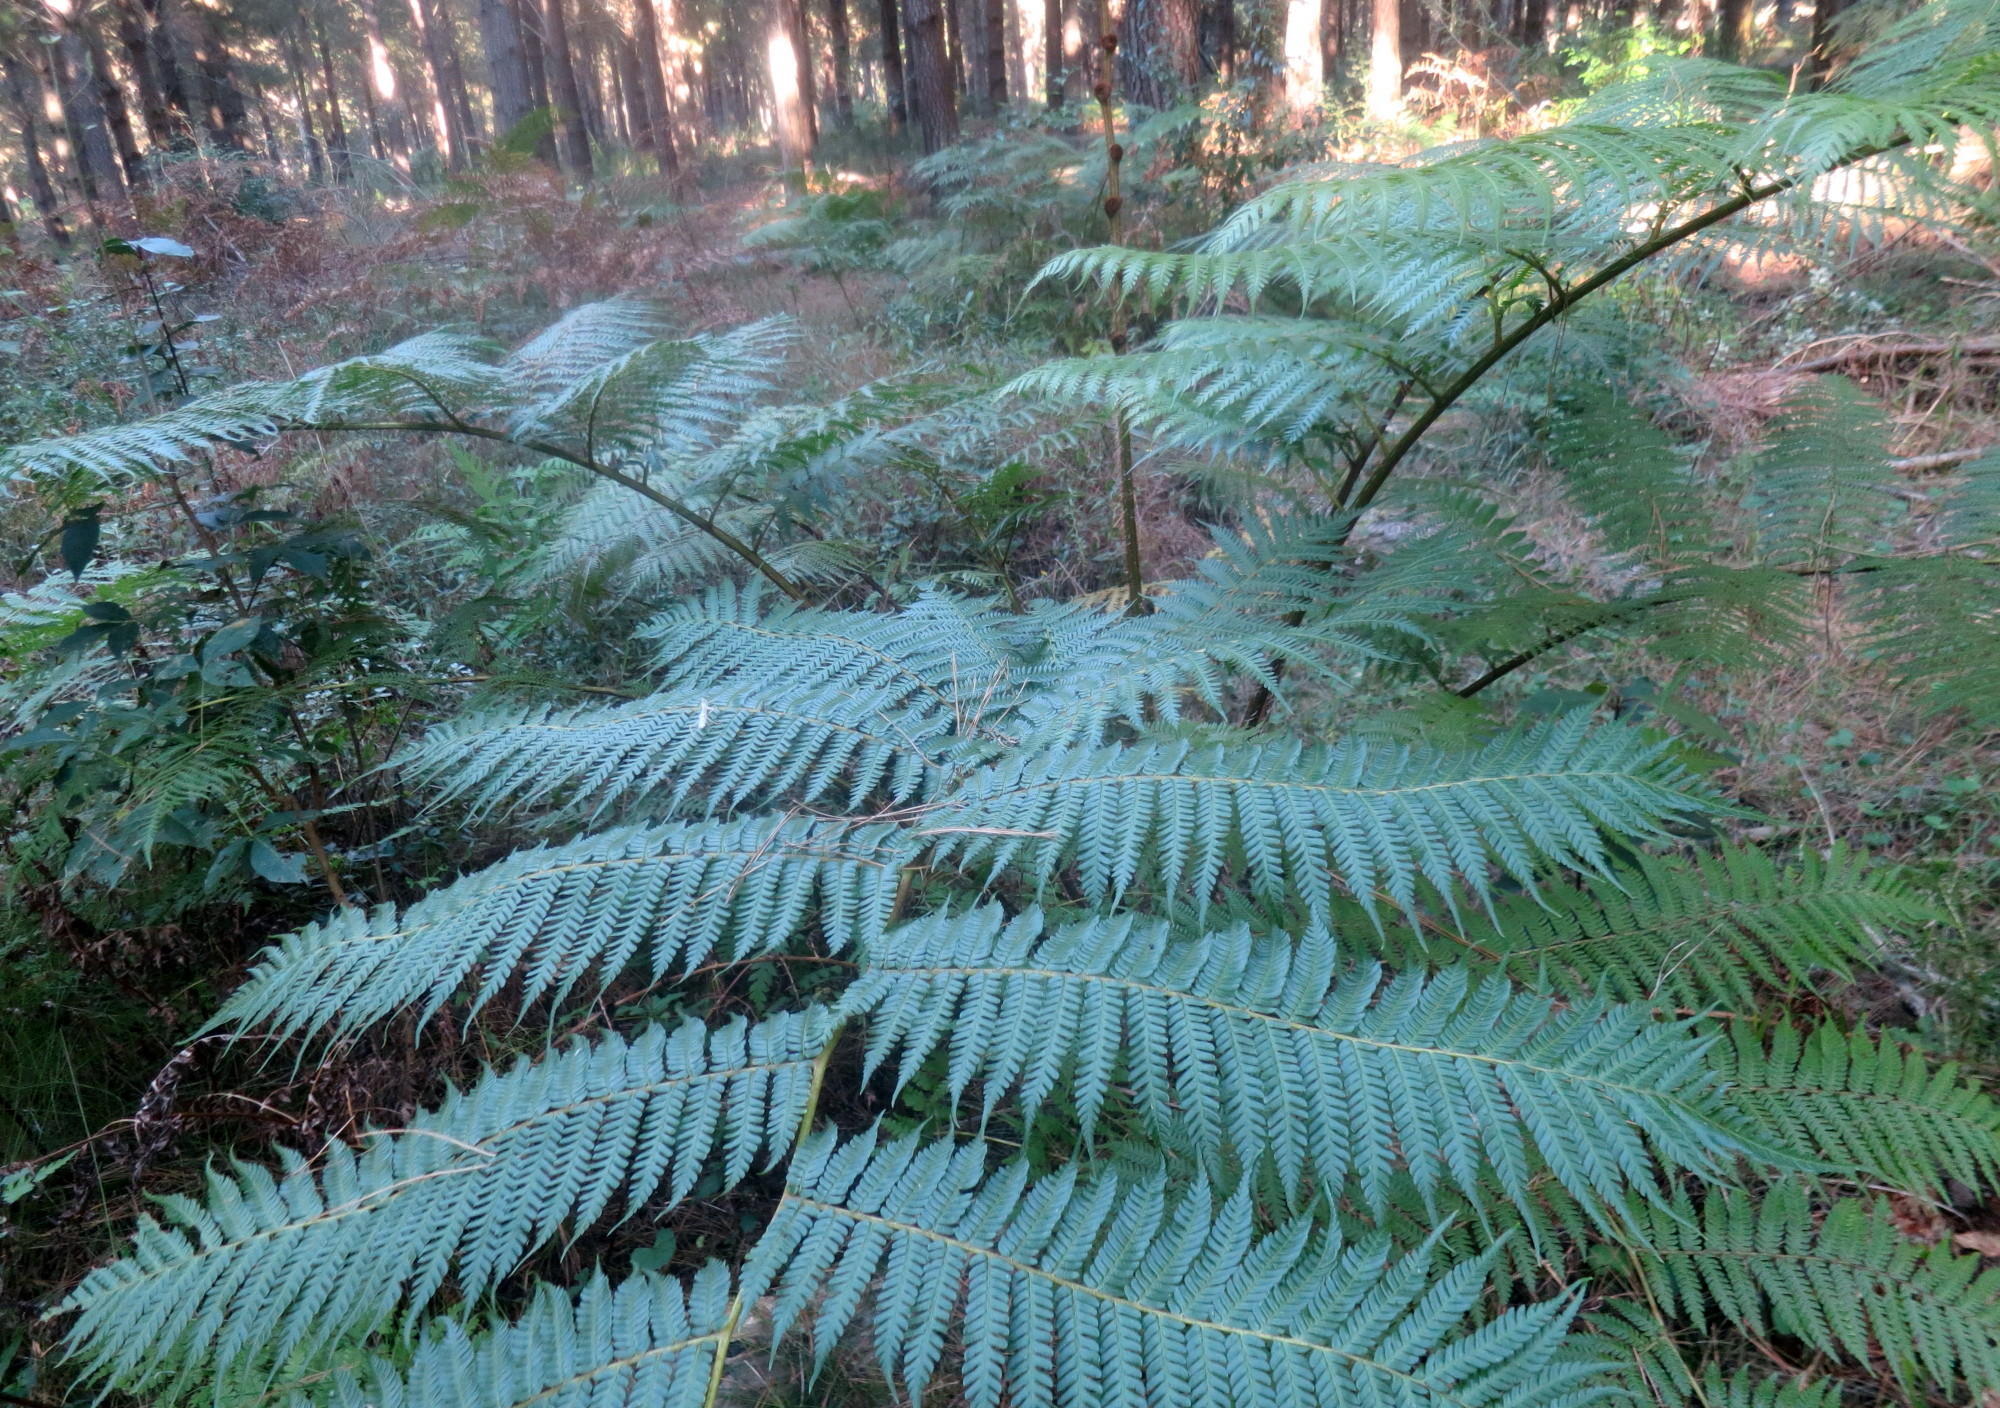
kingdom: Plantae
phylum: Tracheophyta
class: Polypodiopsida
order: Cyatheales
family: Cyatheaceae
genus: Sphaeropteris
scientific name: Sphaeropteris cooperi
